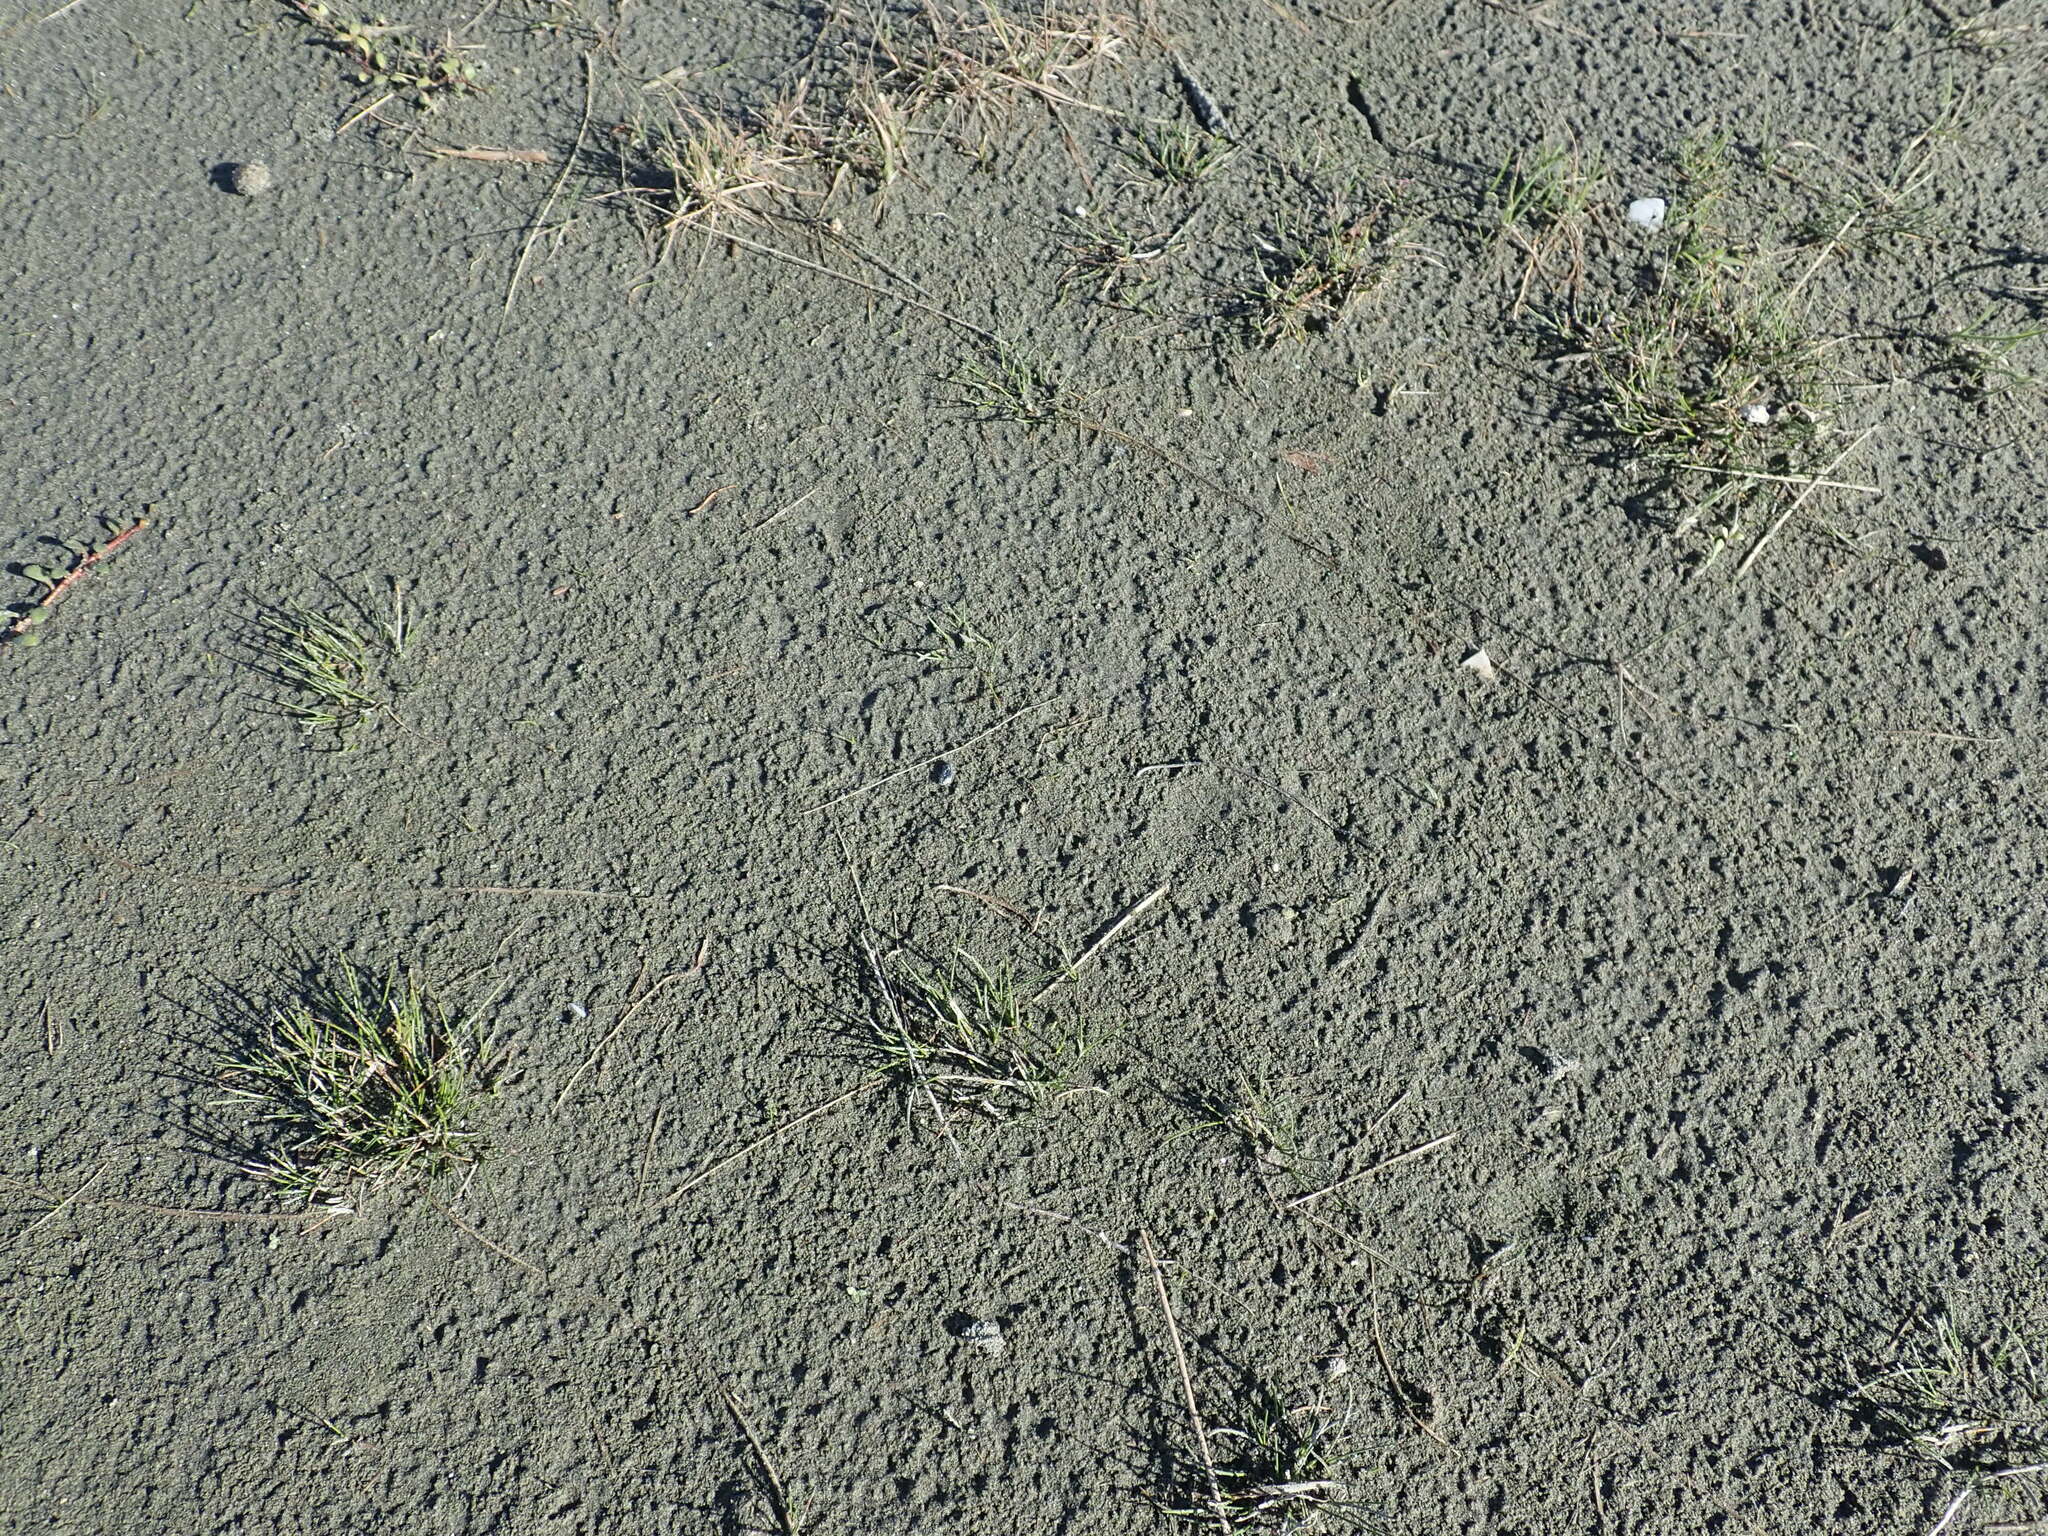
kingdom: Plantae
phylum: Tracheophyta
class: Liliopsida
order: Poales
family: Cyperaceae
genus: Isolepis
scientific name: Isolepis cernua
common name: Slender club-rush
